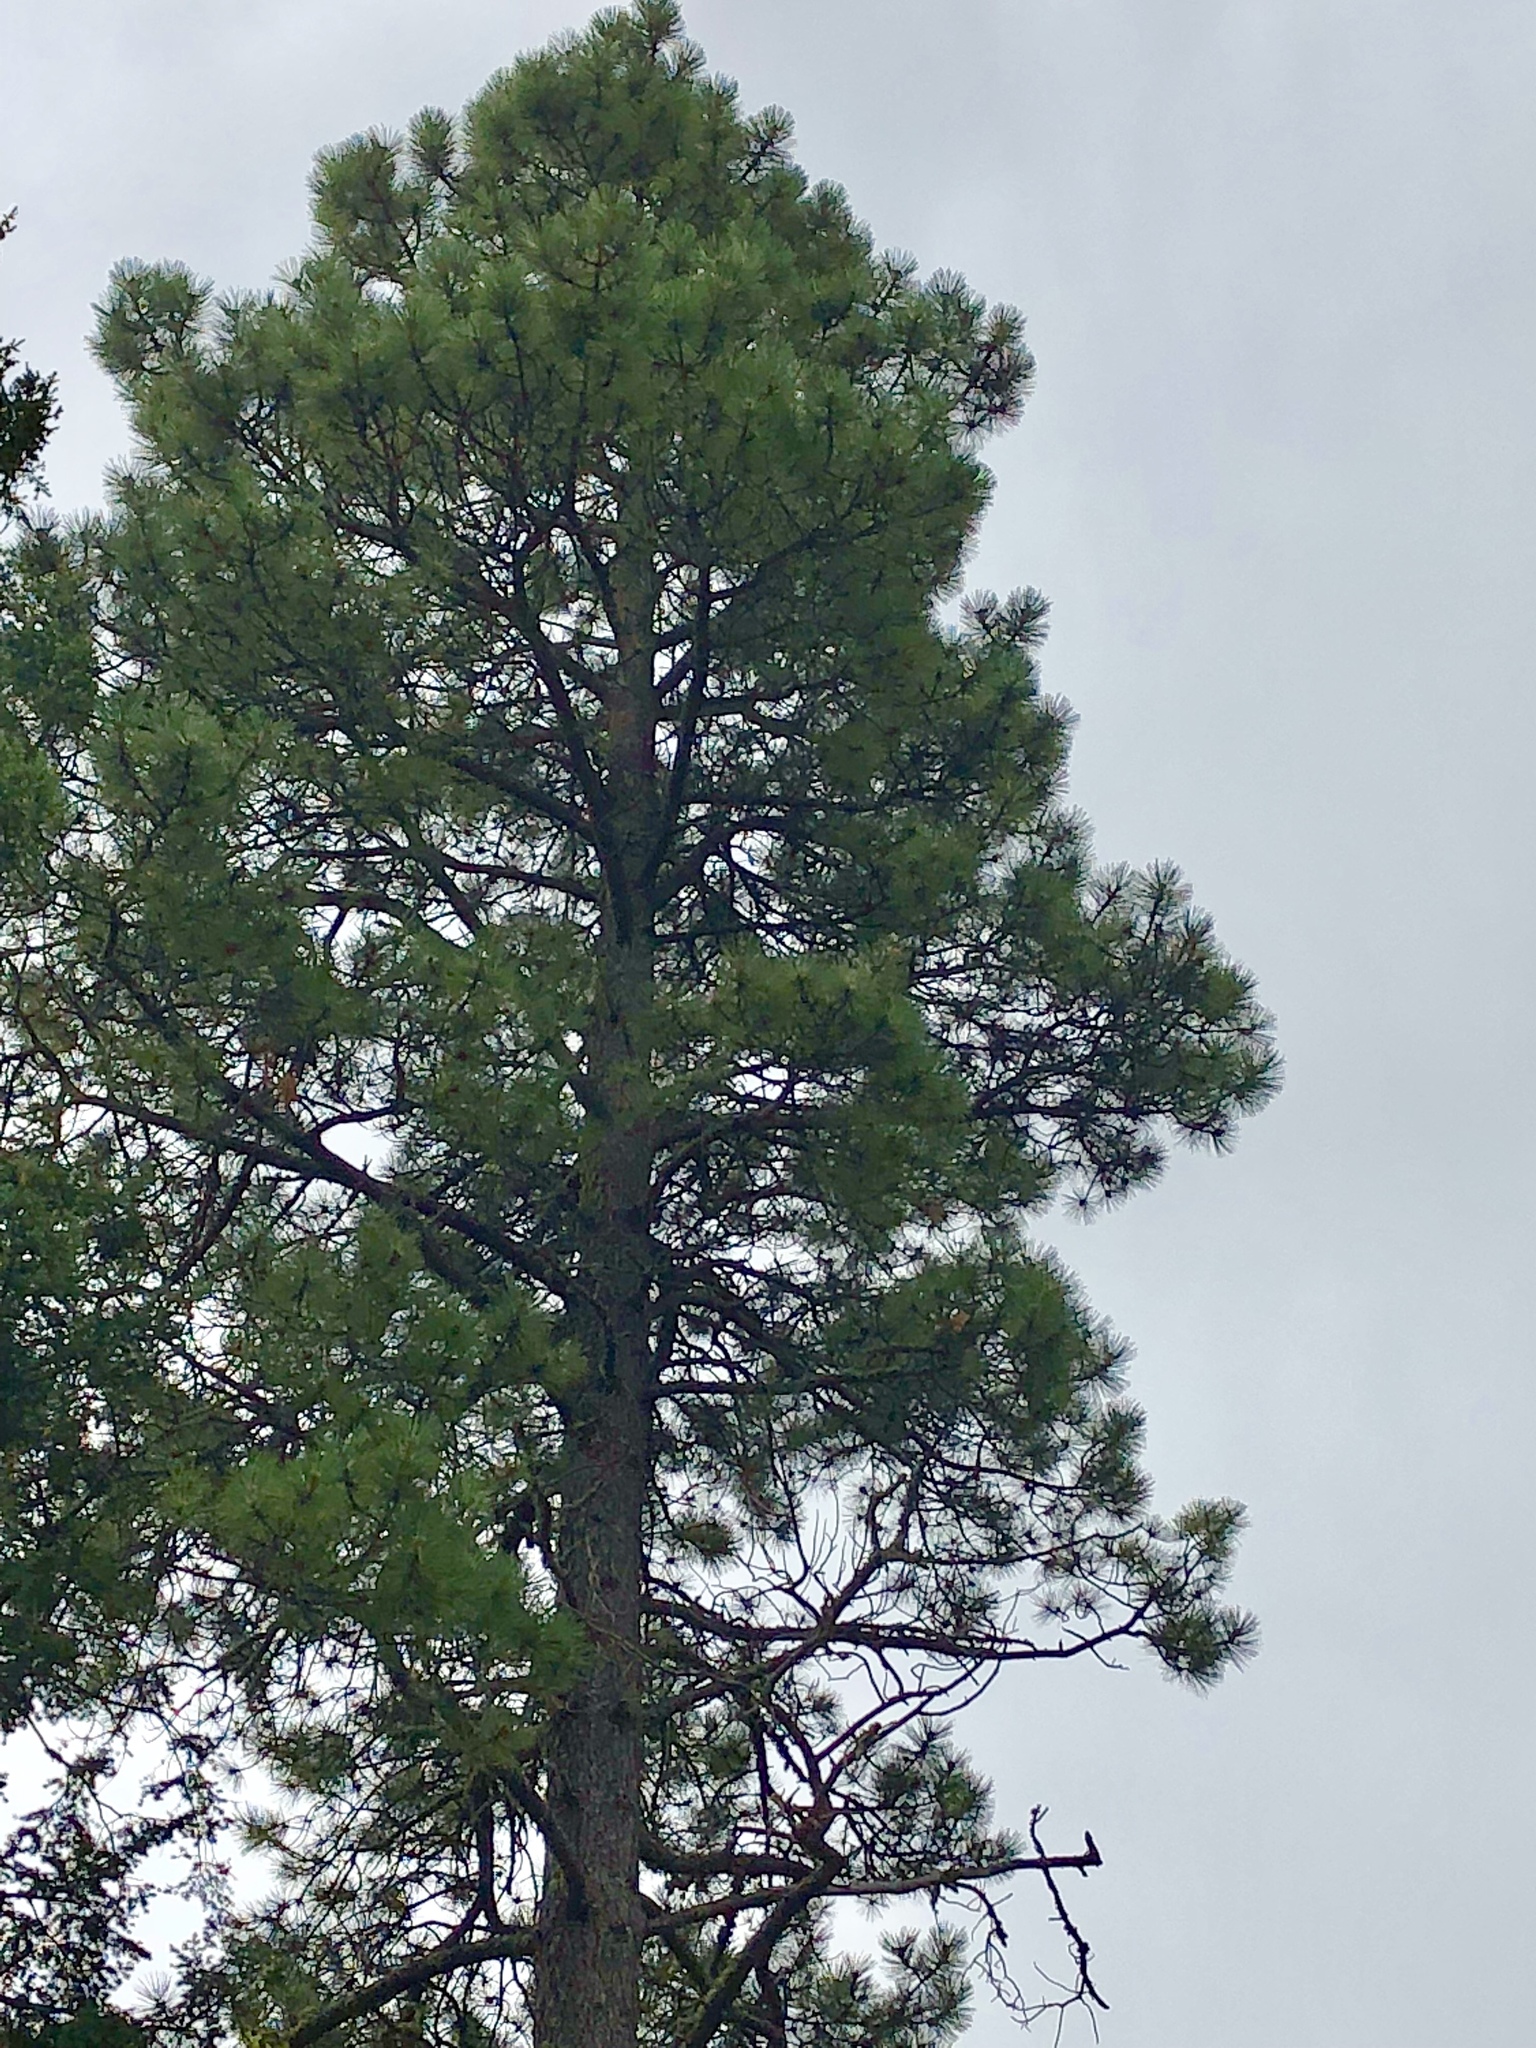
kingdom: Plantae
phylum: Tracheophyta
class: Pinopsida
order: Pinales
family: Pinaceae
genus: Pinus
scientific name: Pinus ponderosa
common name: Western yellow-pine
